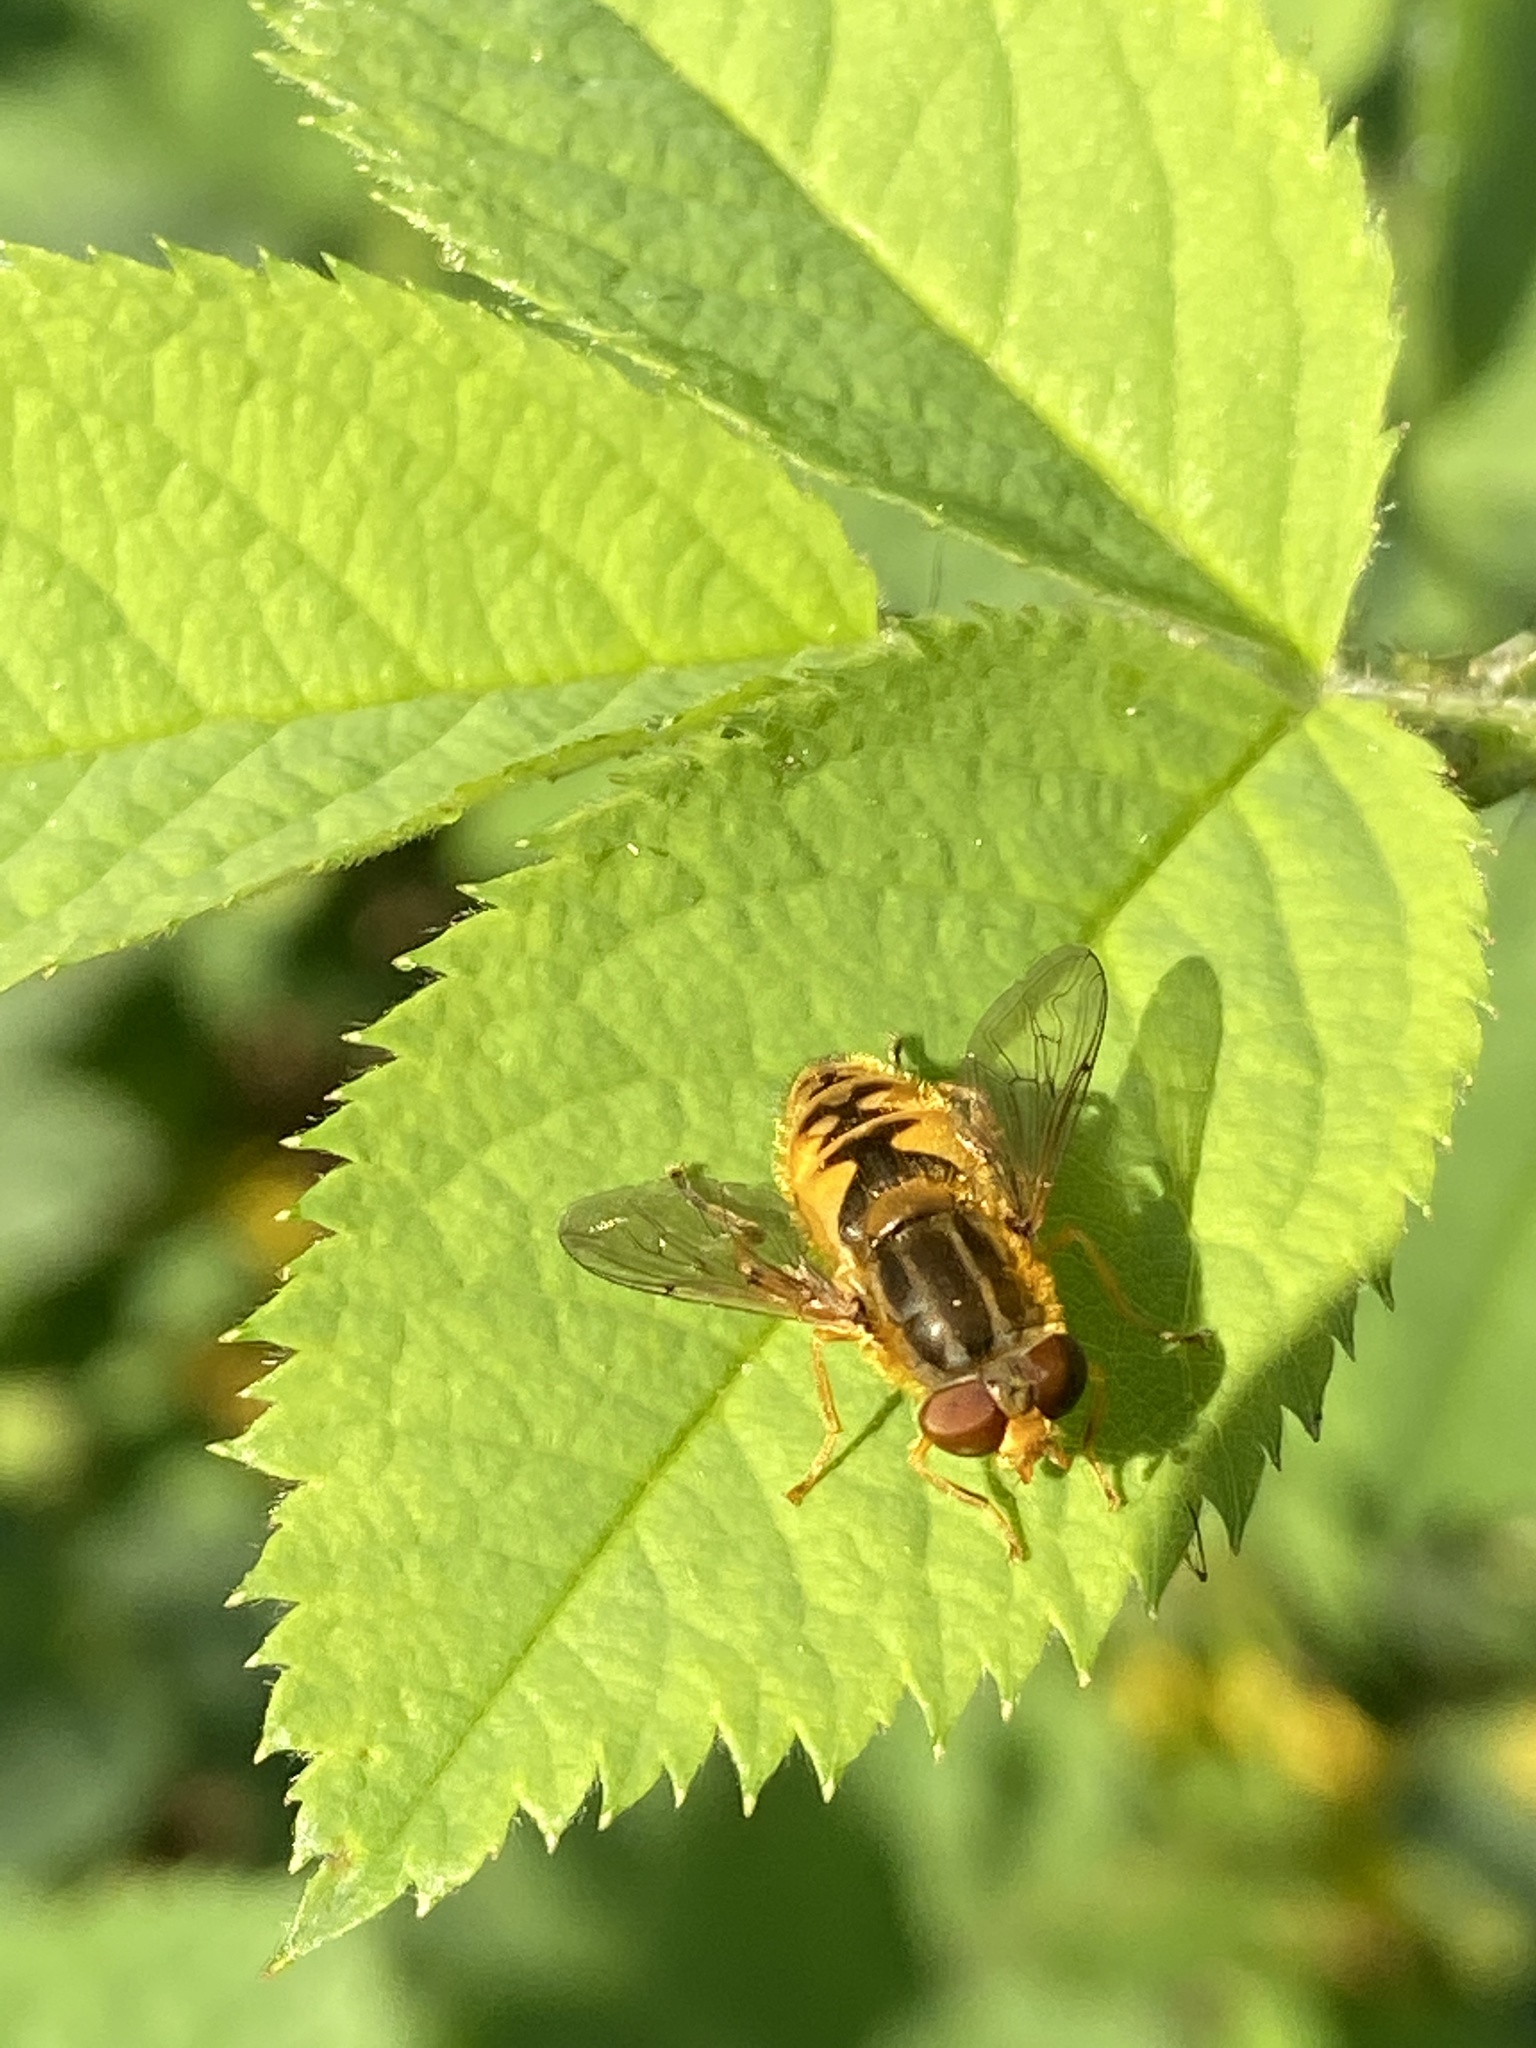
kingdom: Animalia
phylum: Arthropoda
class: Insecta
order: Diptera
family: Syrphidae
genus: Parhelophilus
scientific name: Parhelophilus consimilis
